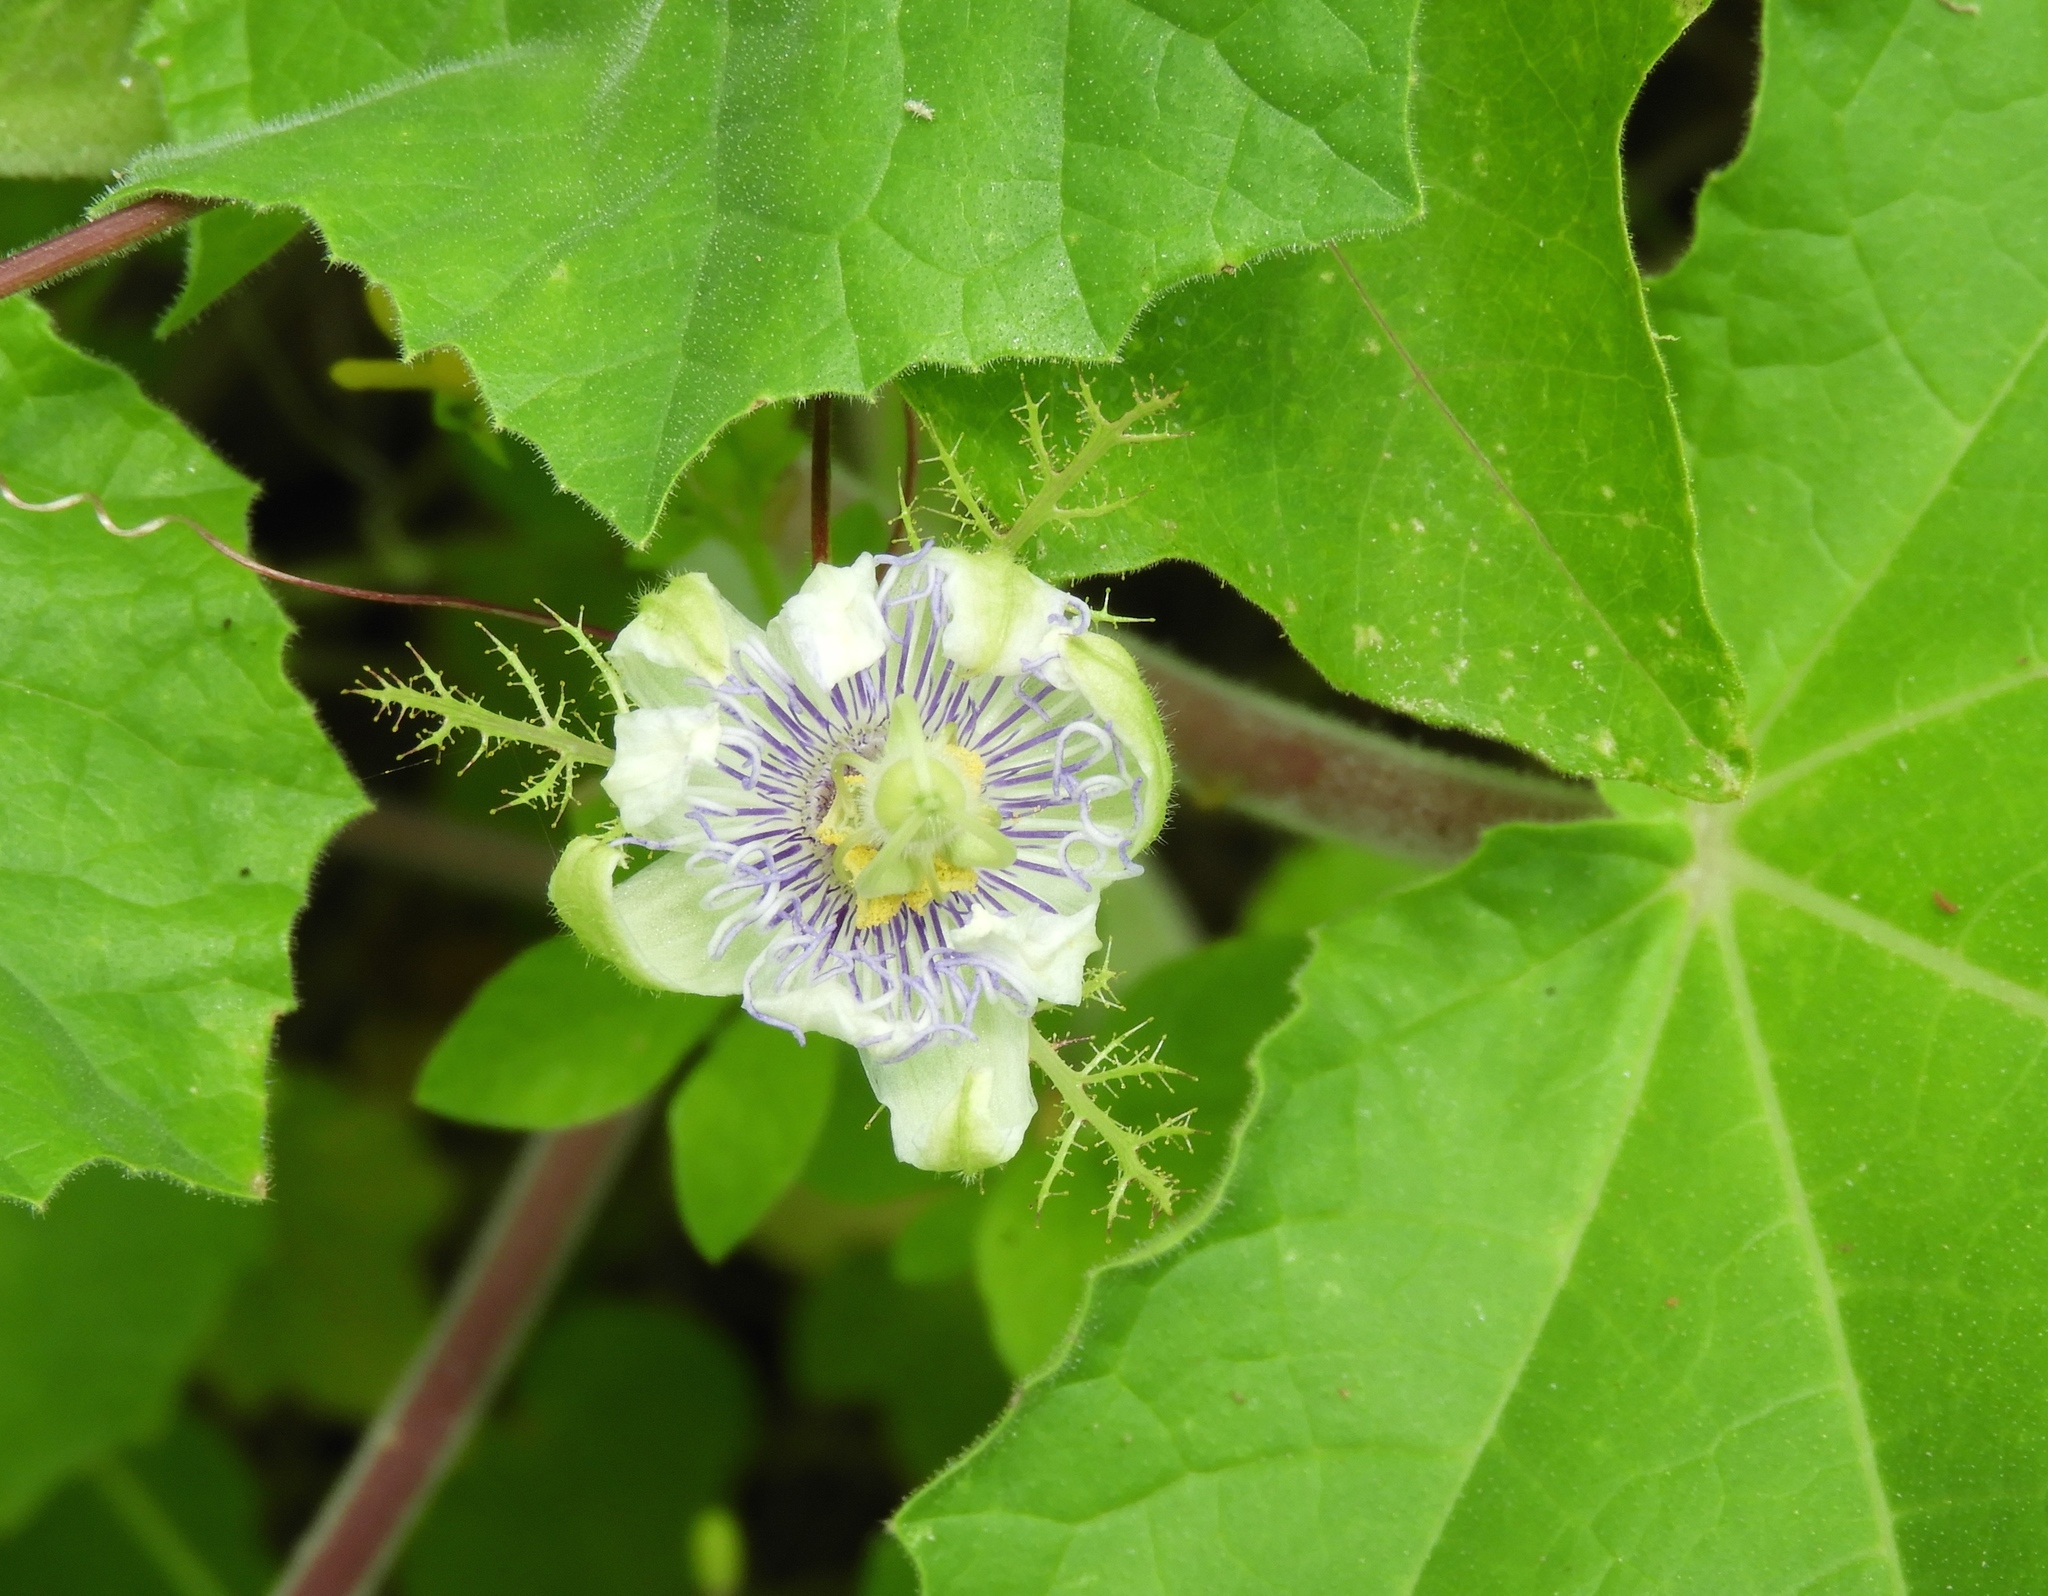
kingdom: Plantae
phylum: Tracheophyta
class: Magnoliopsida
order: Malpighiales
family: Passifloraceae
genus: Passiflora
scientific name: Passiflora foetida
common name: Fetid passionflower
